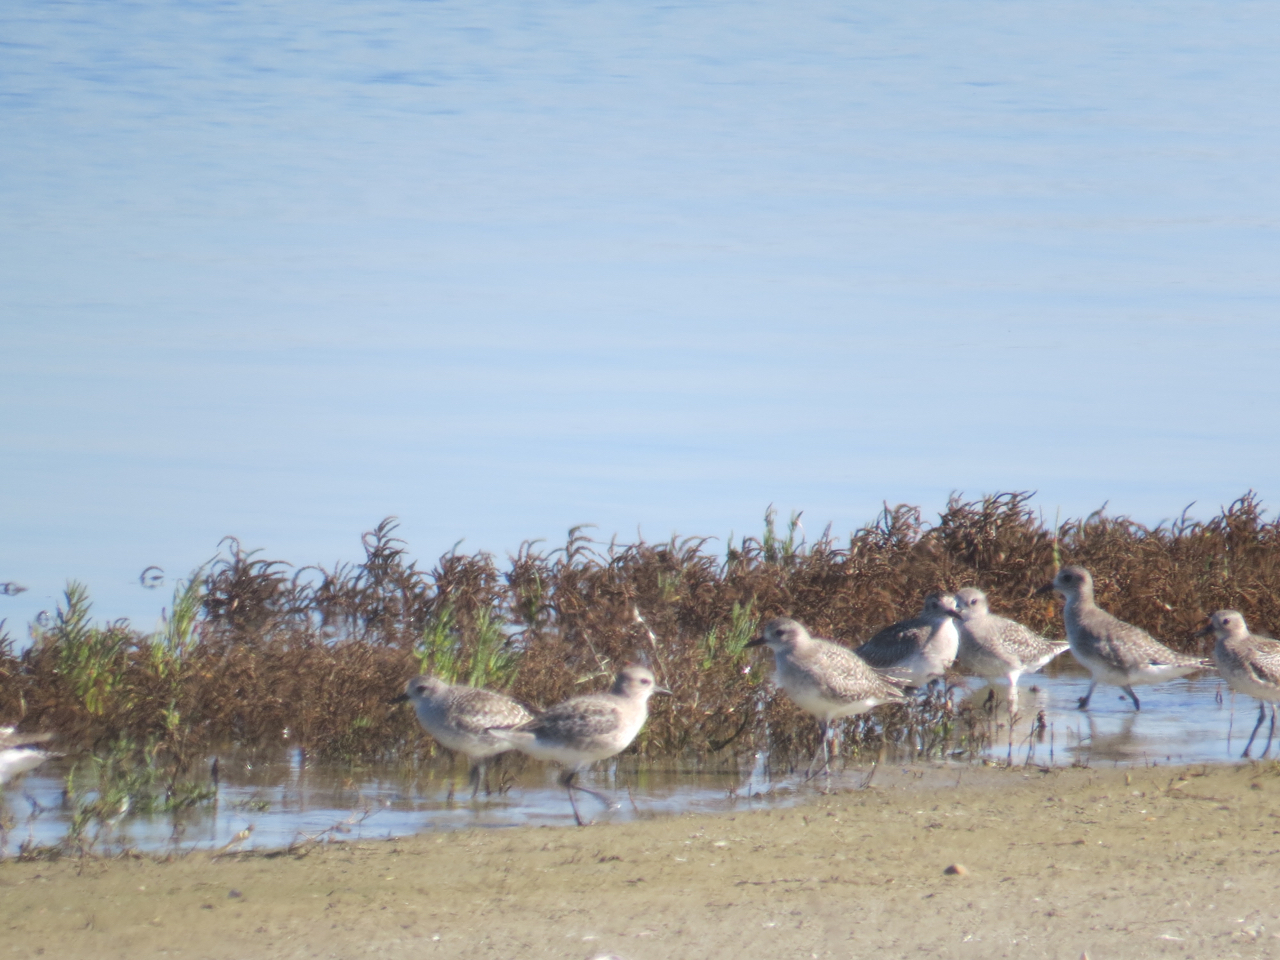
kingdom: Animalia
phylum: Chordata
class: Aves
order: Charadriiformes
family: Charadriidae
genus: Pluvialis
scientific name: Pluvialis squatarola
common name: Grey plover
